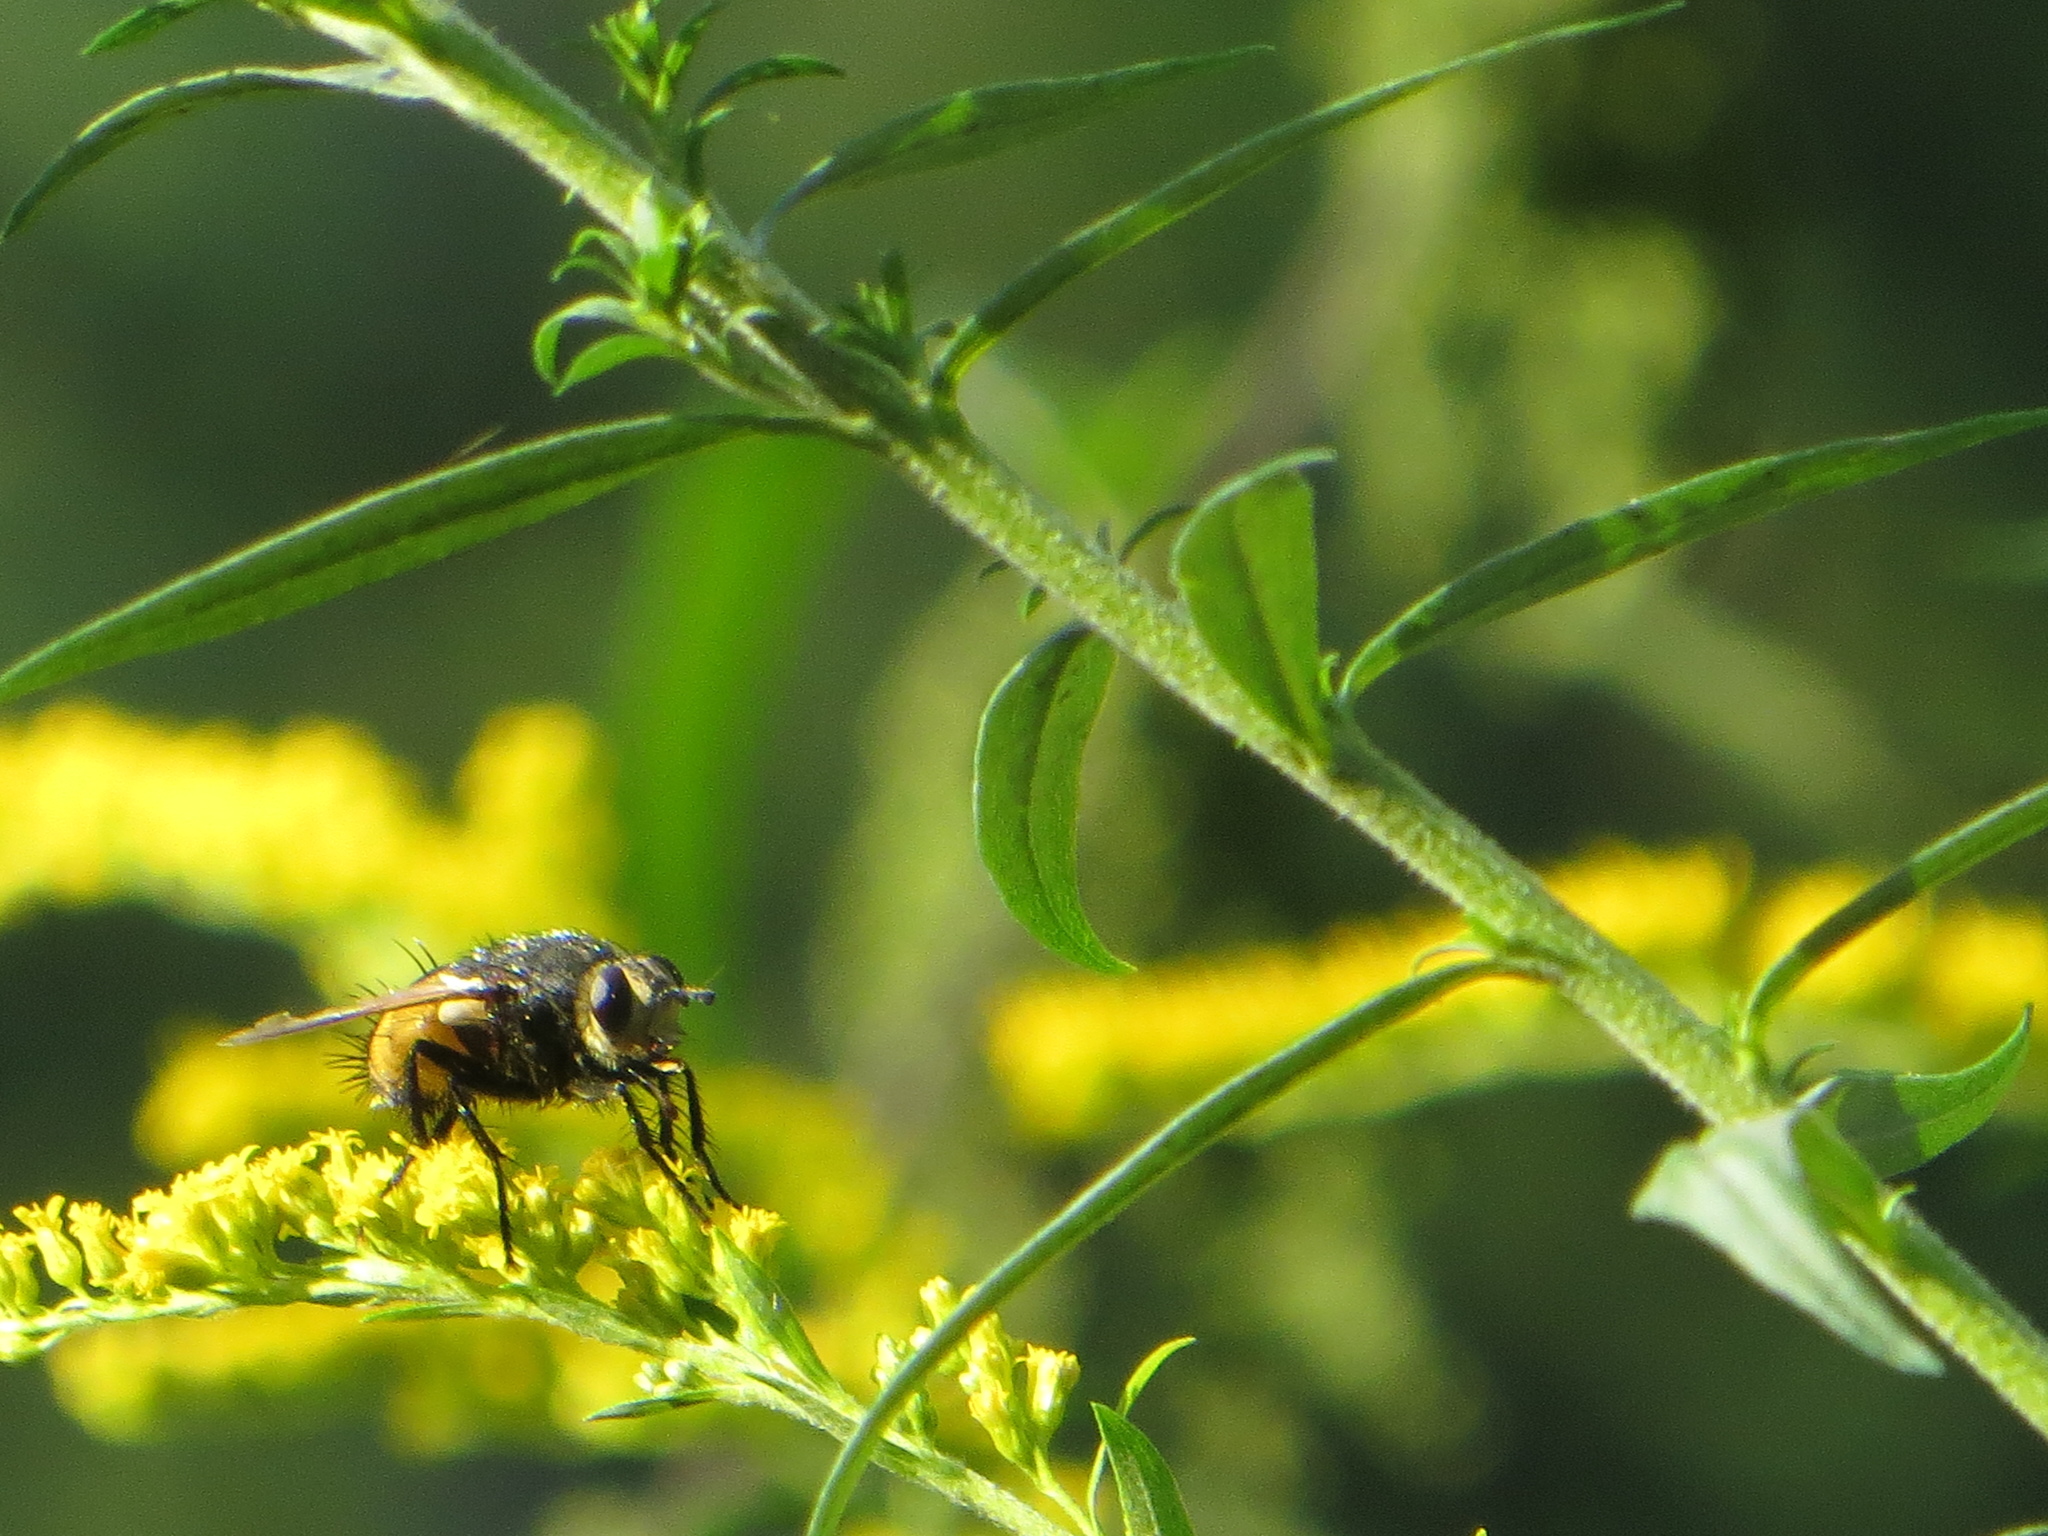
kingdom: Animalia
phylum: Arthropoda
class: Insecta
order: Diptera
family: Tachinidae
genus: Nowickia
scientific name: Nowickia ferox
